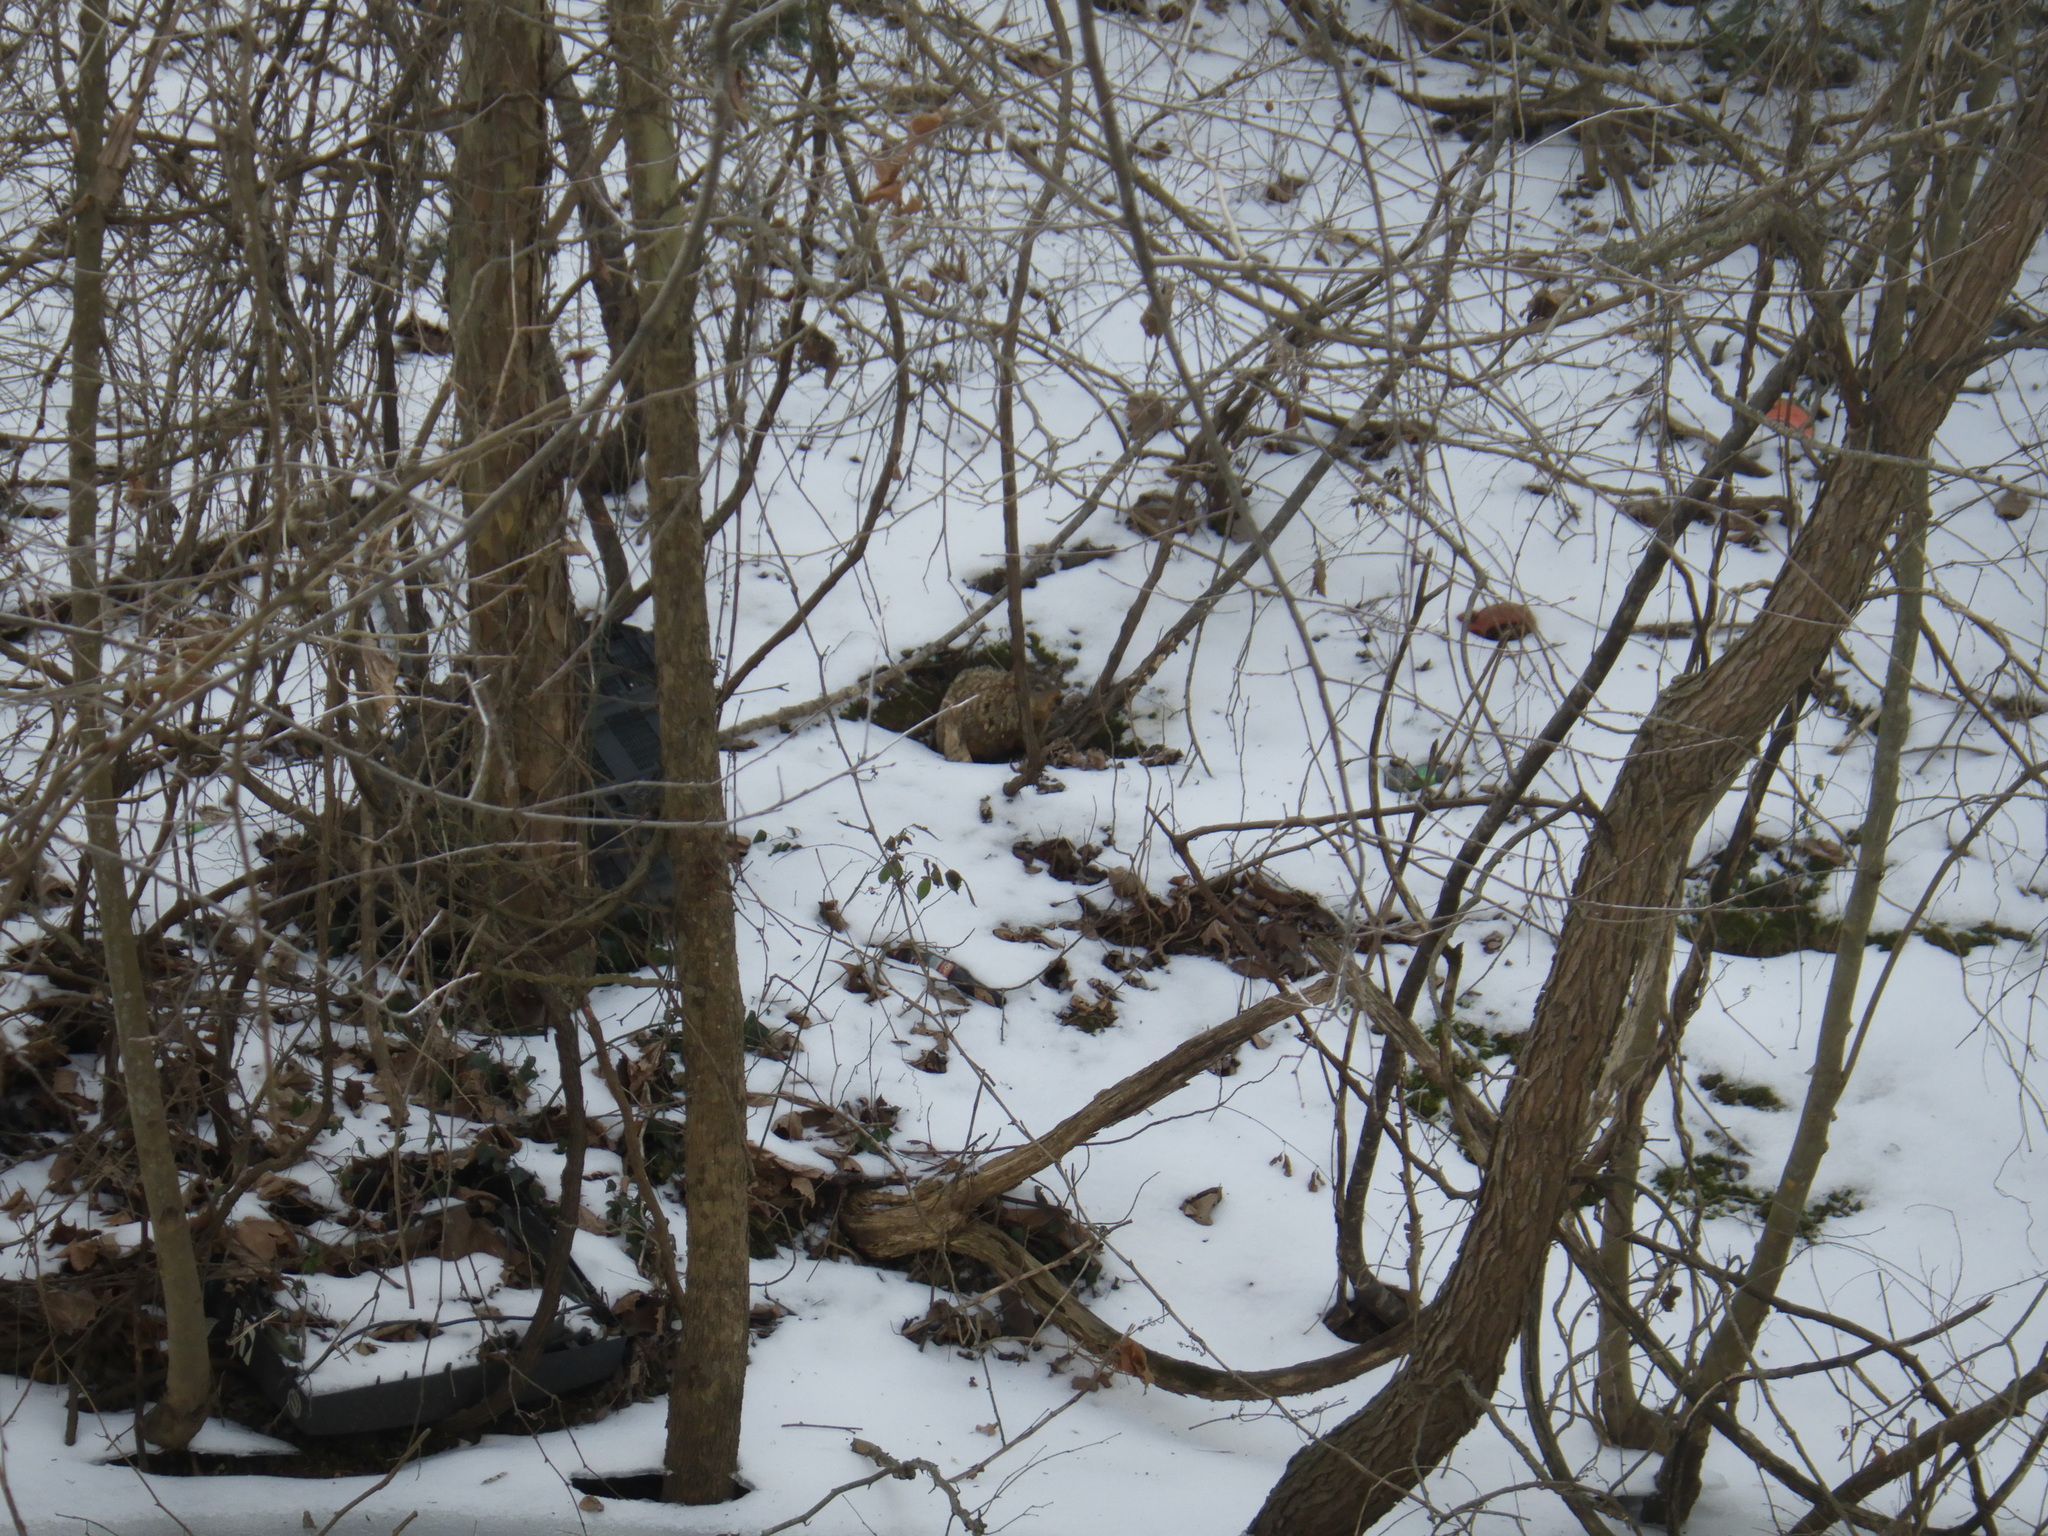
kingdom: Animalia
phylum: Chordata
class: Mammalia
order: Rodentia
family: Sciuridae
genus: Marmota
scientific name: Marmota monax
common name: Groundhog
